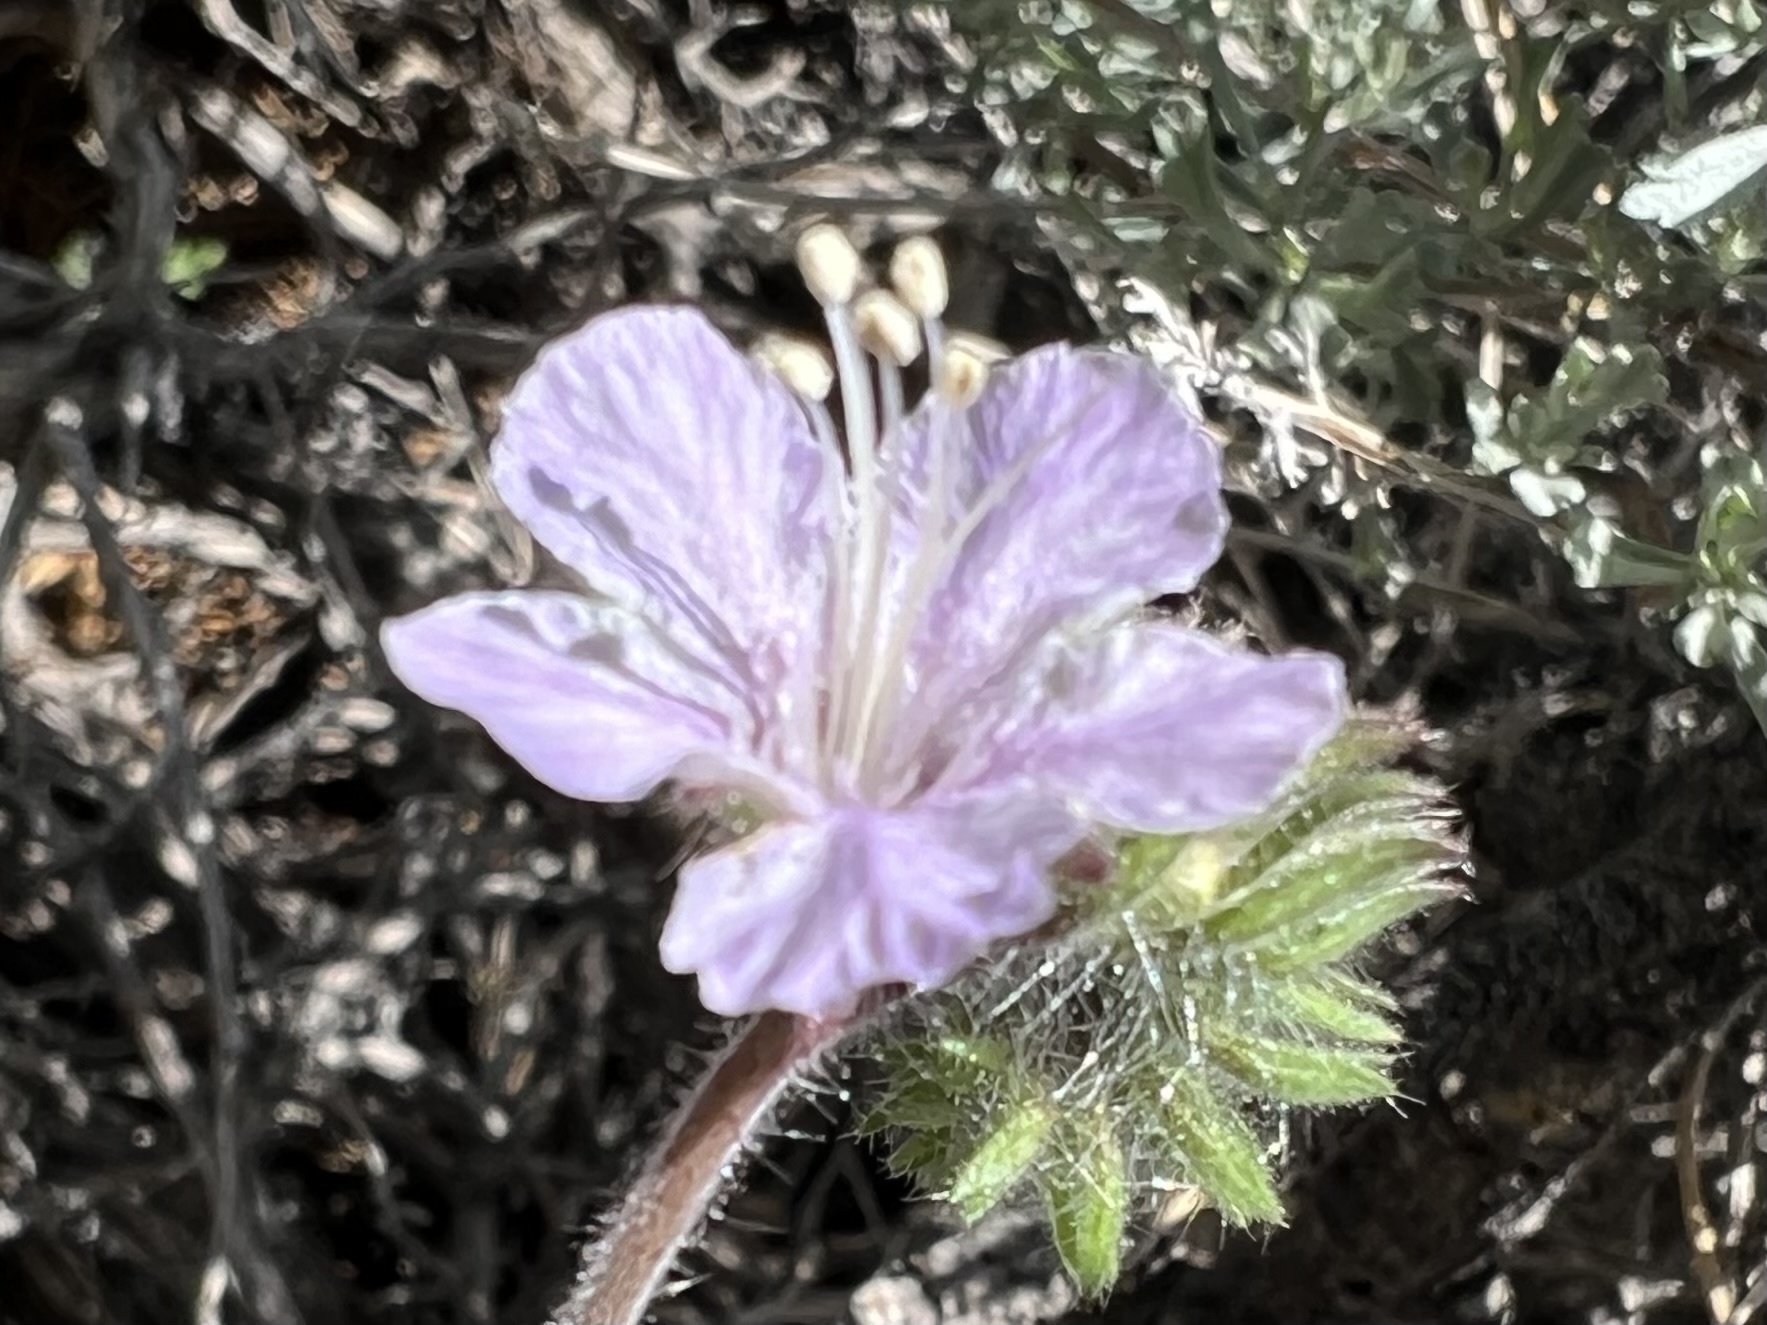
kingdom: Plantae
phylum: Tracheophyta
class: Magnoliopsida
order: Boraginales
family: Hydrophyllaceae
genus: Phacelia
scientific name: Phacelia vallis-mortae
